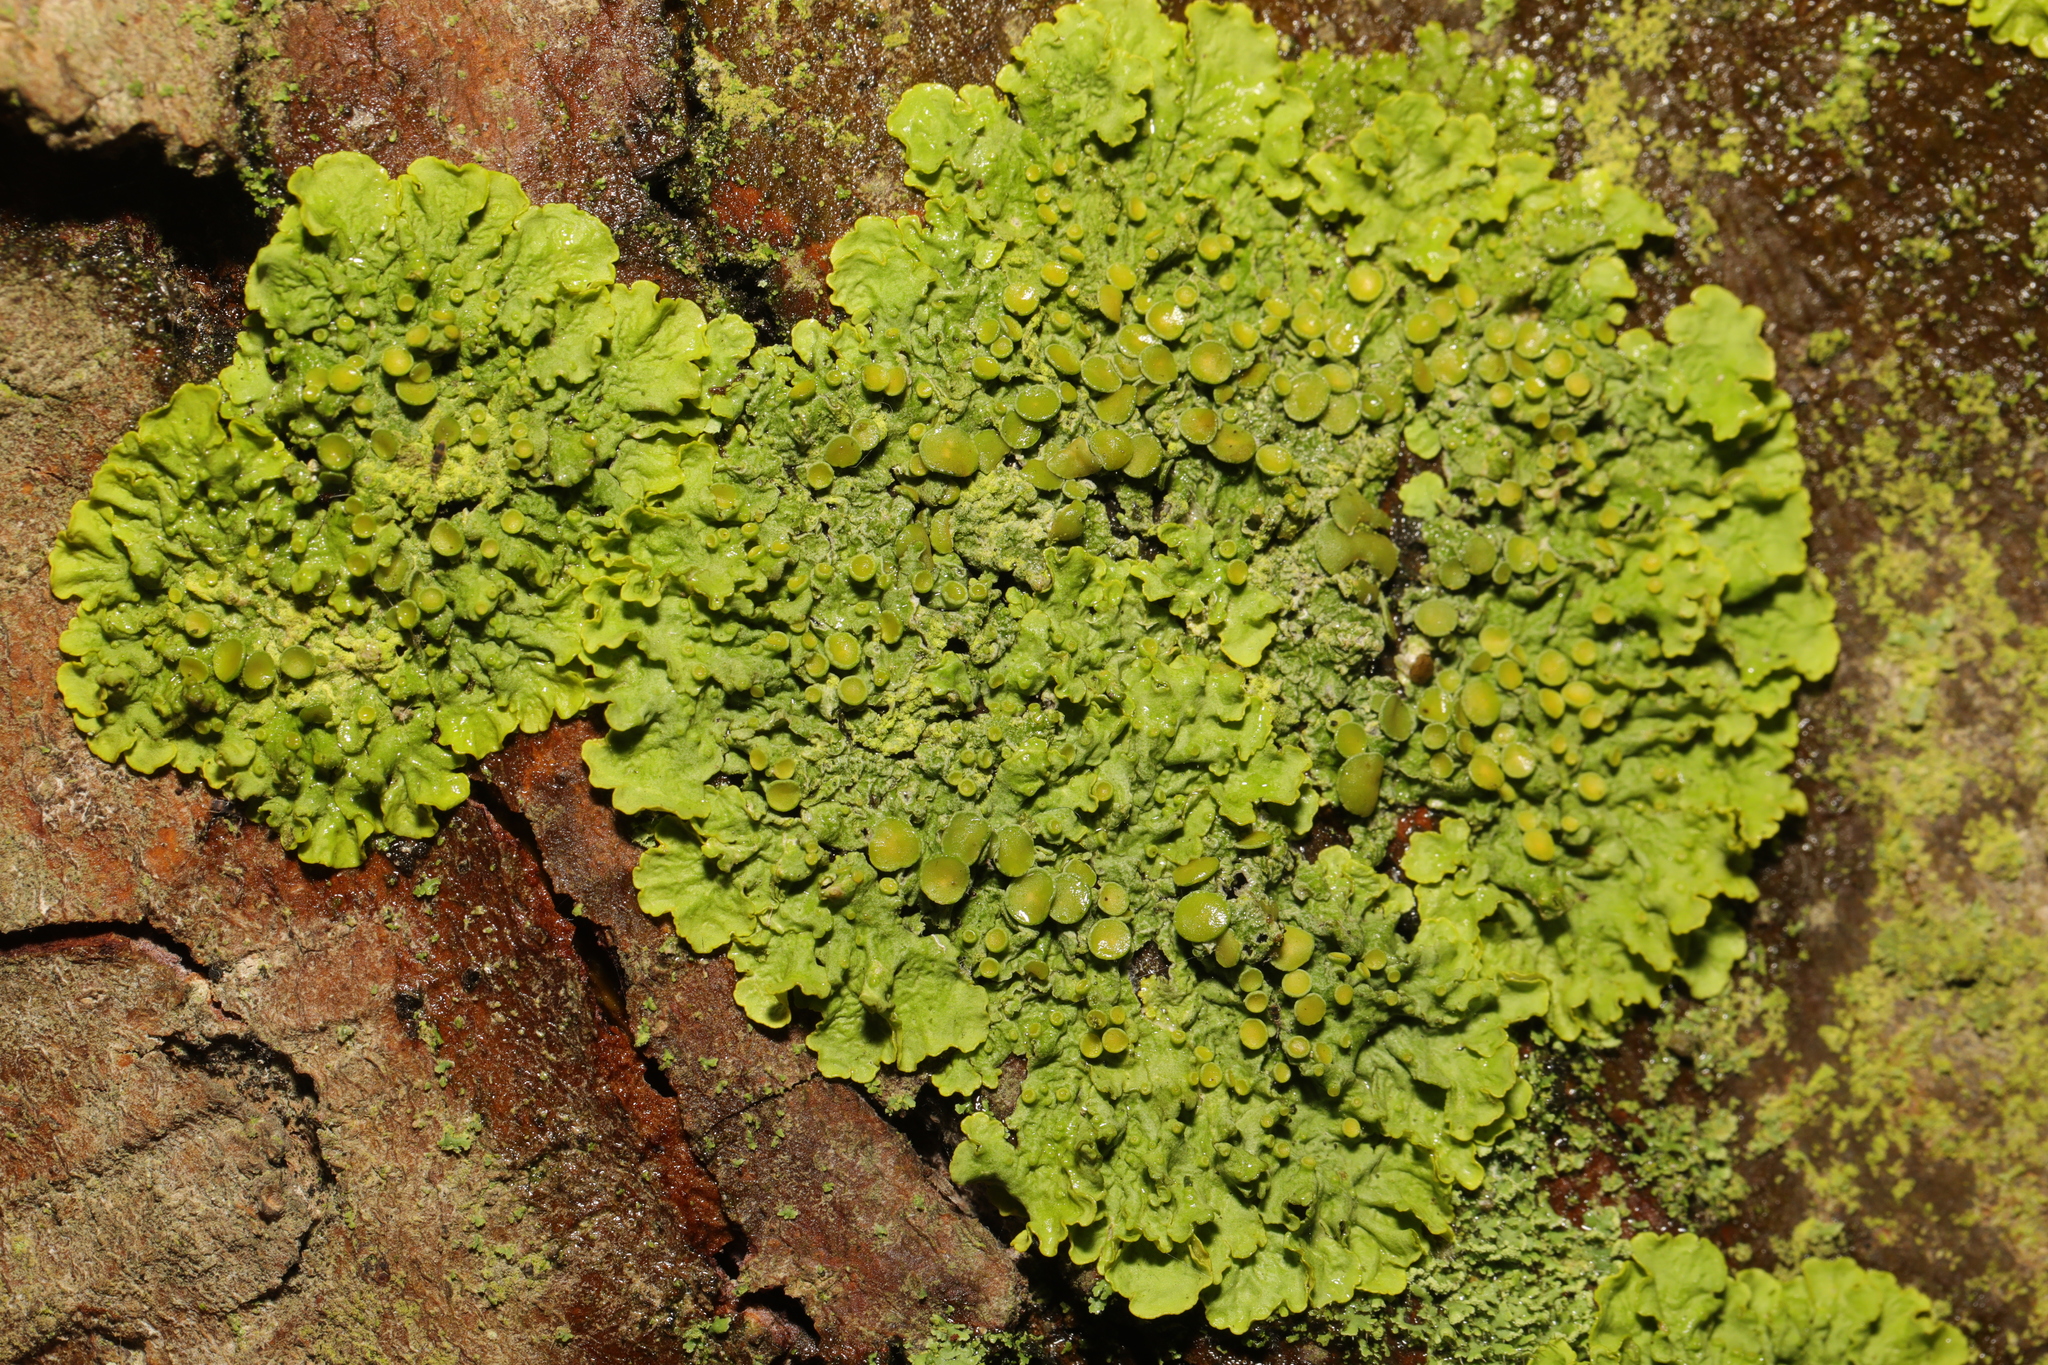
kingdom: Fungi
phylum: Ascomycota
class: Lecanoromycetes
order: Teloschistales
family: Teloschistaceae
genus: Xanthoria
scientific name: Xanthoria parietina
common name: Common orange lichen
